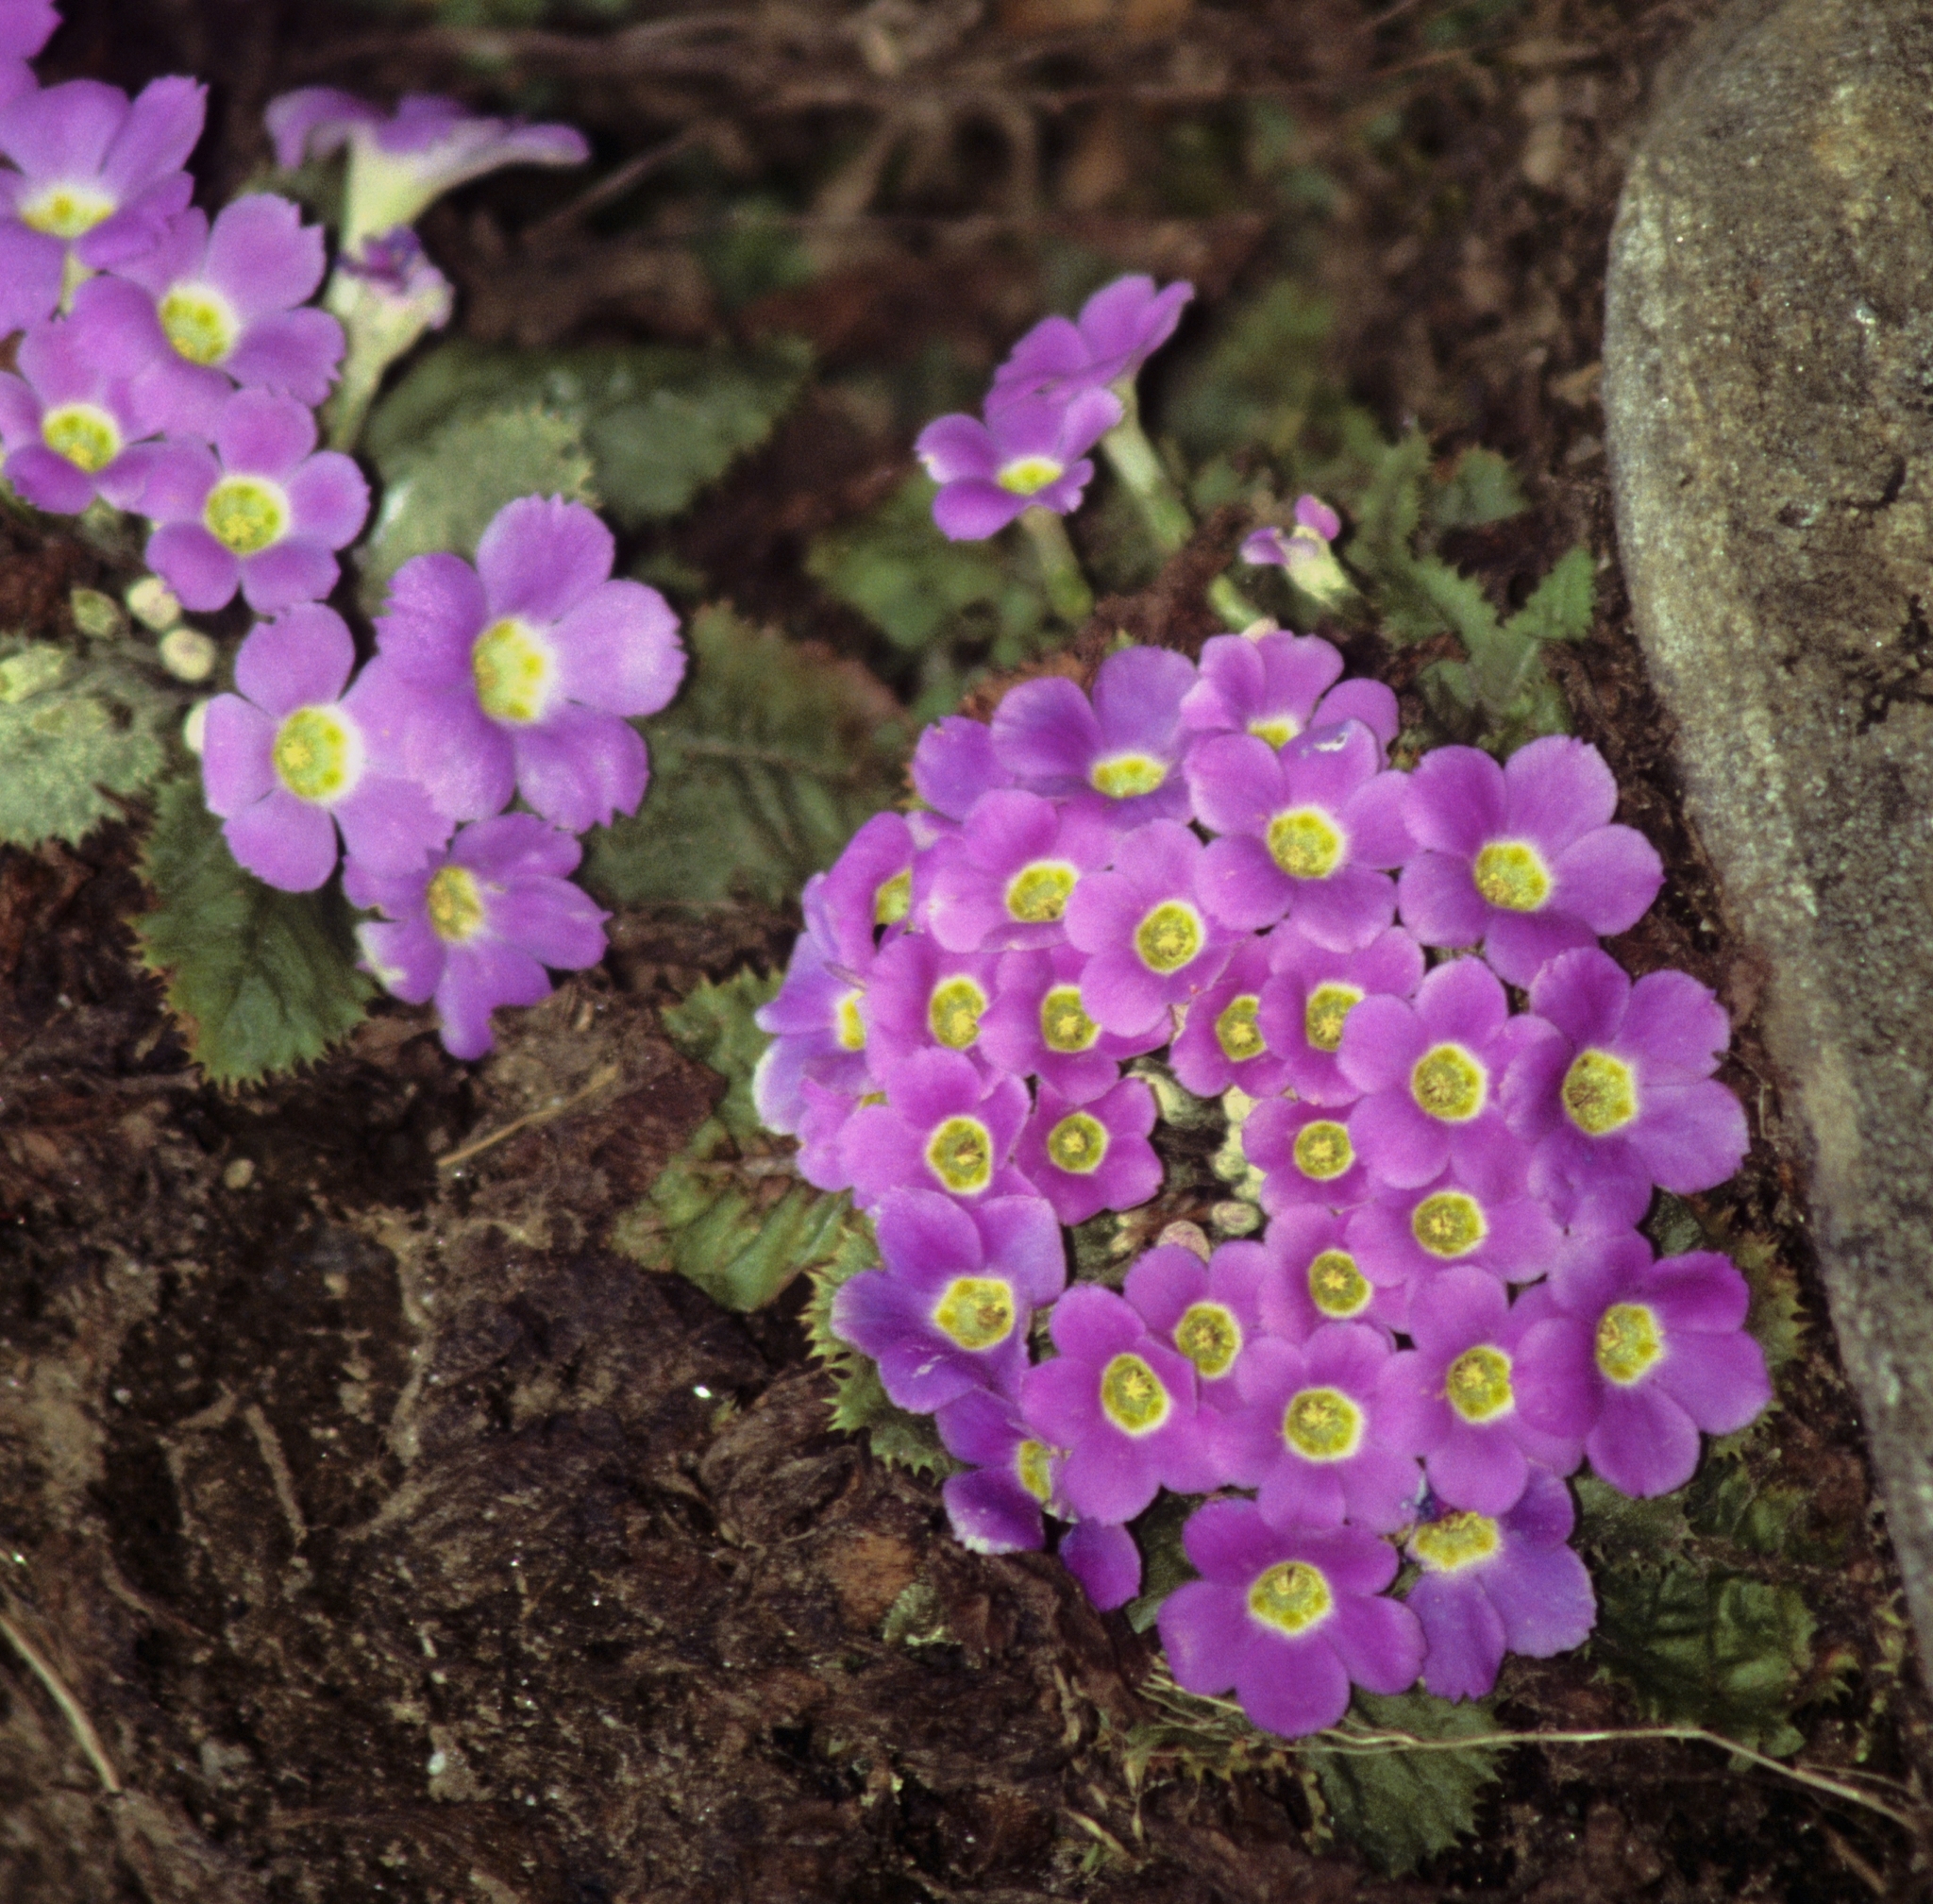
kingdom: Plantae
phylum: Tracheophyta
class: Magnoliopsida
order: Ericales
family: Primulaceae
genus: Primula
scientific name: Primula gracilipes
